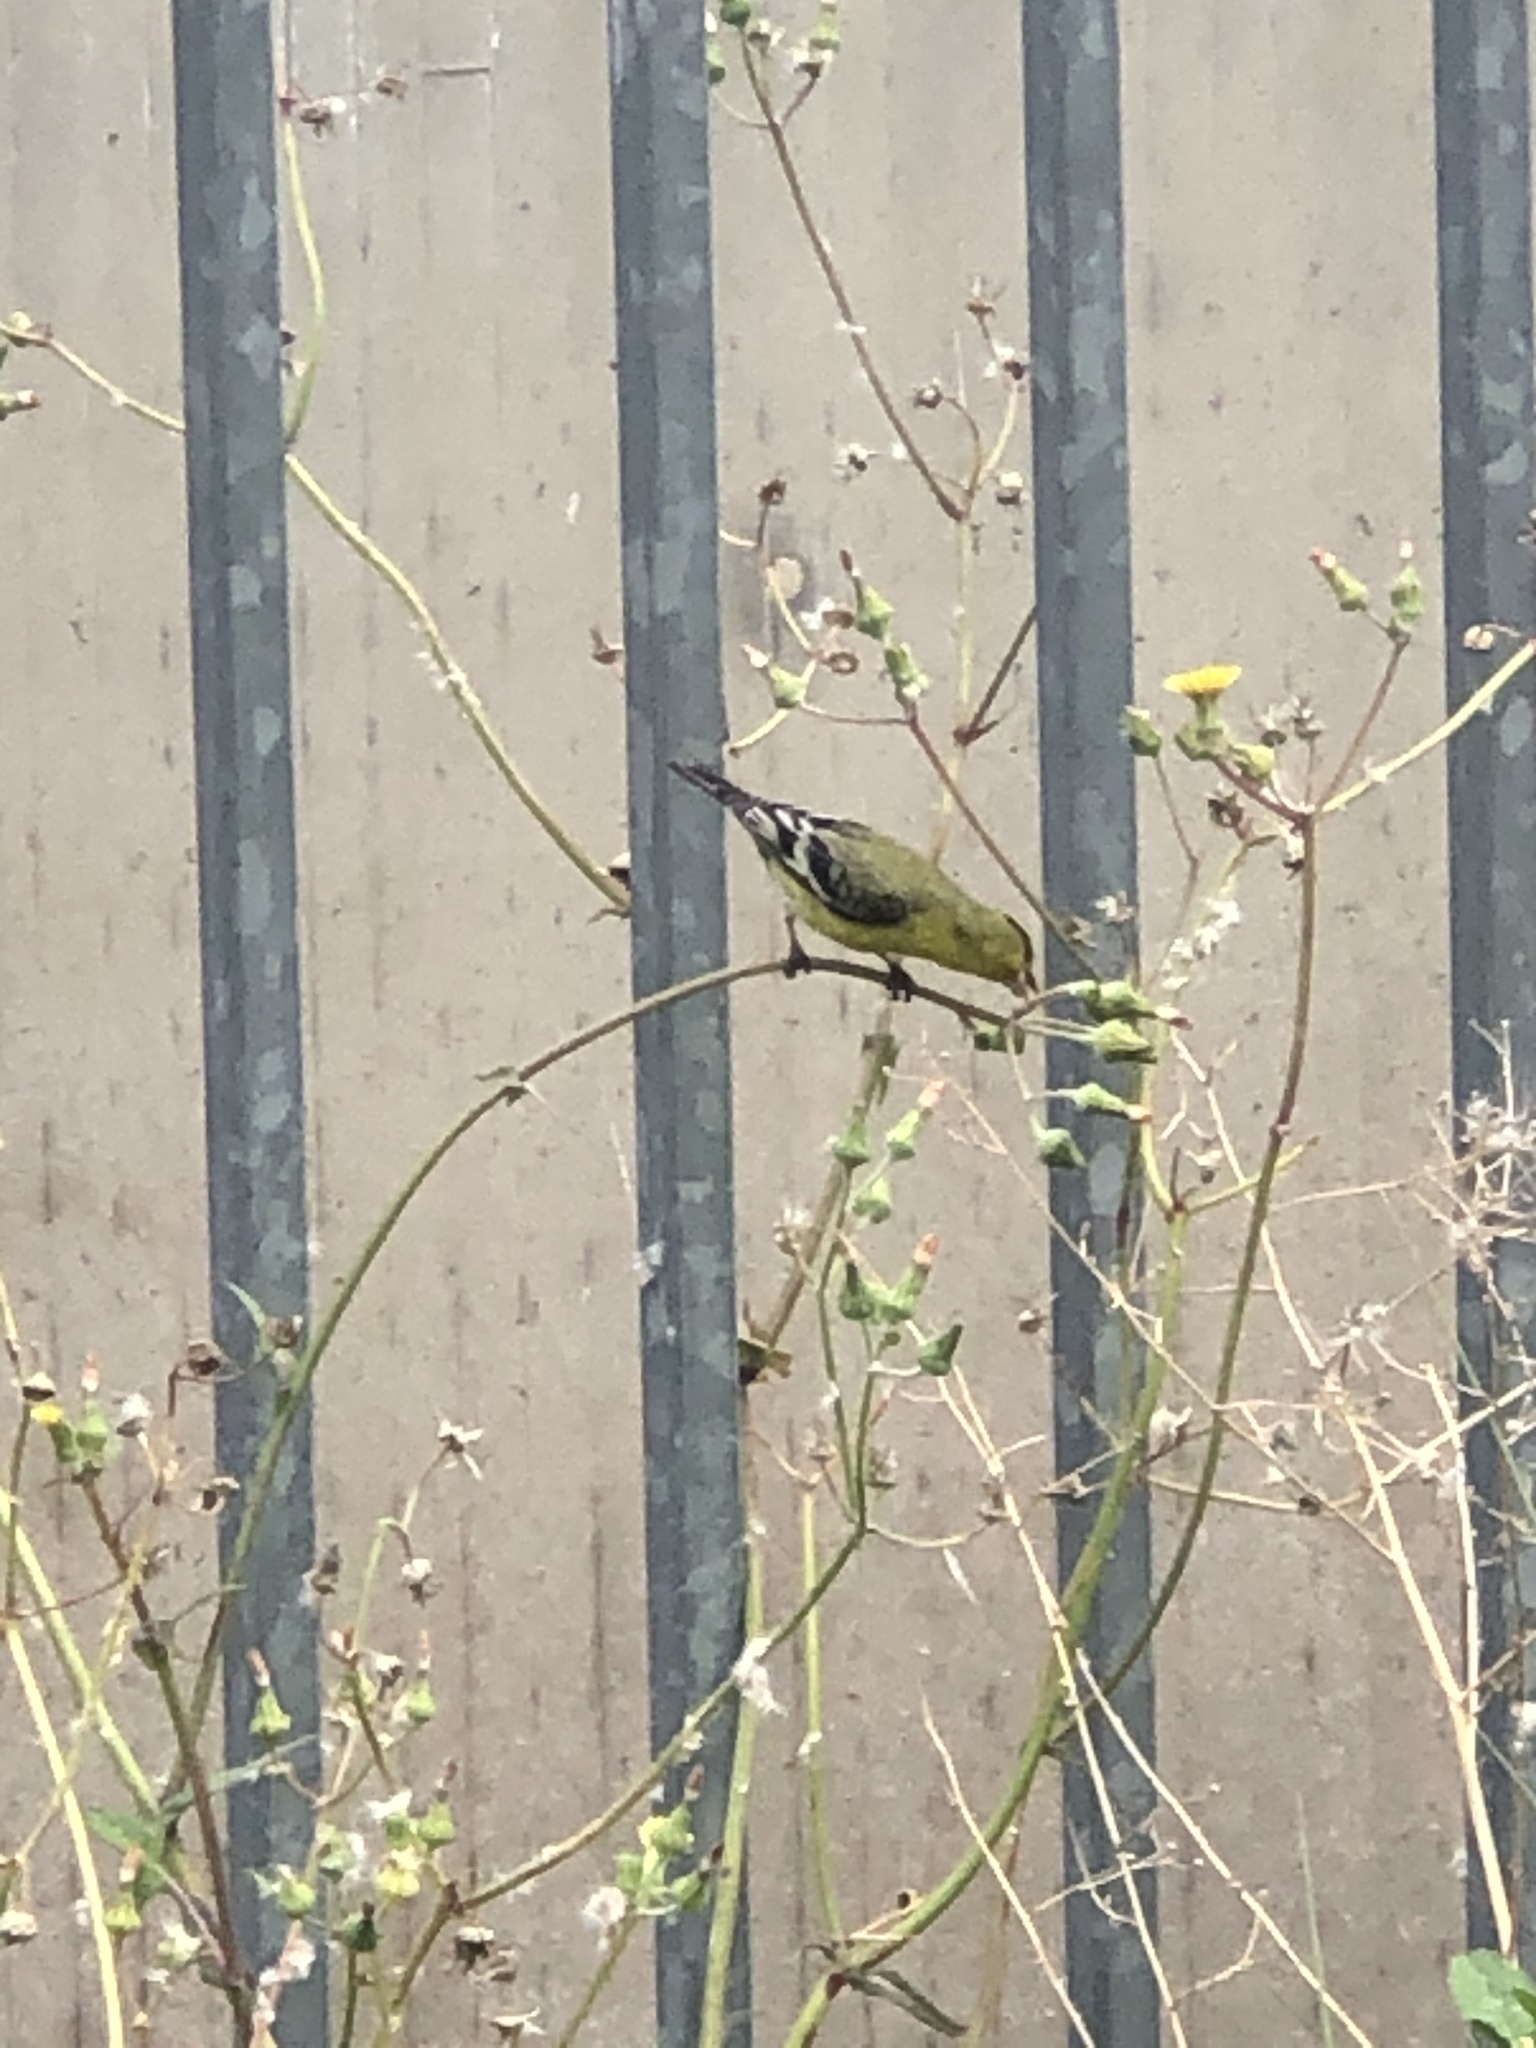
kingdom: Animalia
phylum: Chordata
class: Aves
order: Passeriformes
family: Fringillidae
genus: Spinus
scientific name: Spinus psaltria
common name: Lesser goldfinch
